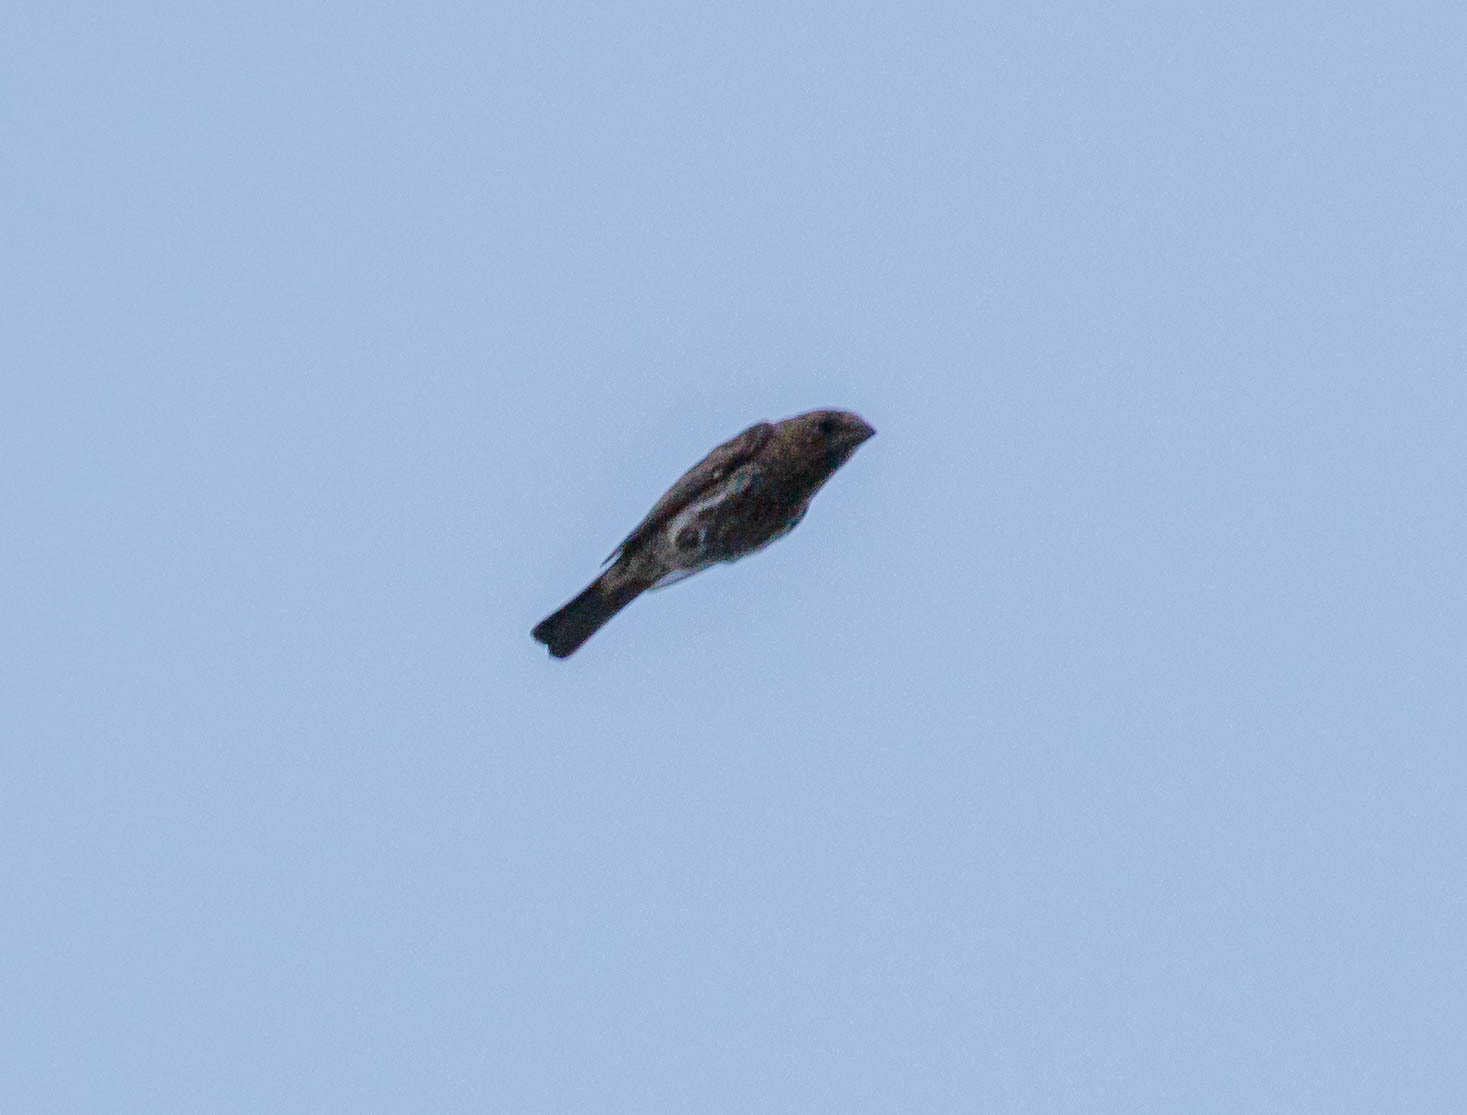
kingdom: Animalia
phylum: Chordata
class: Aves
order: Passeriformes
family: Fringillidae
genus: Haemorhous
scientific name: Haemorhous mexicanus
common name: House finch
